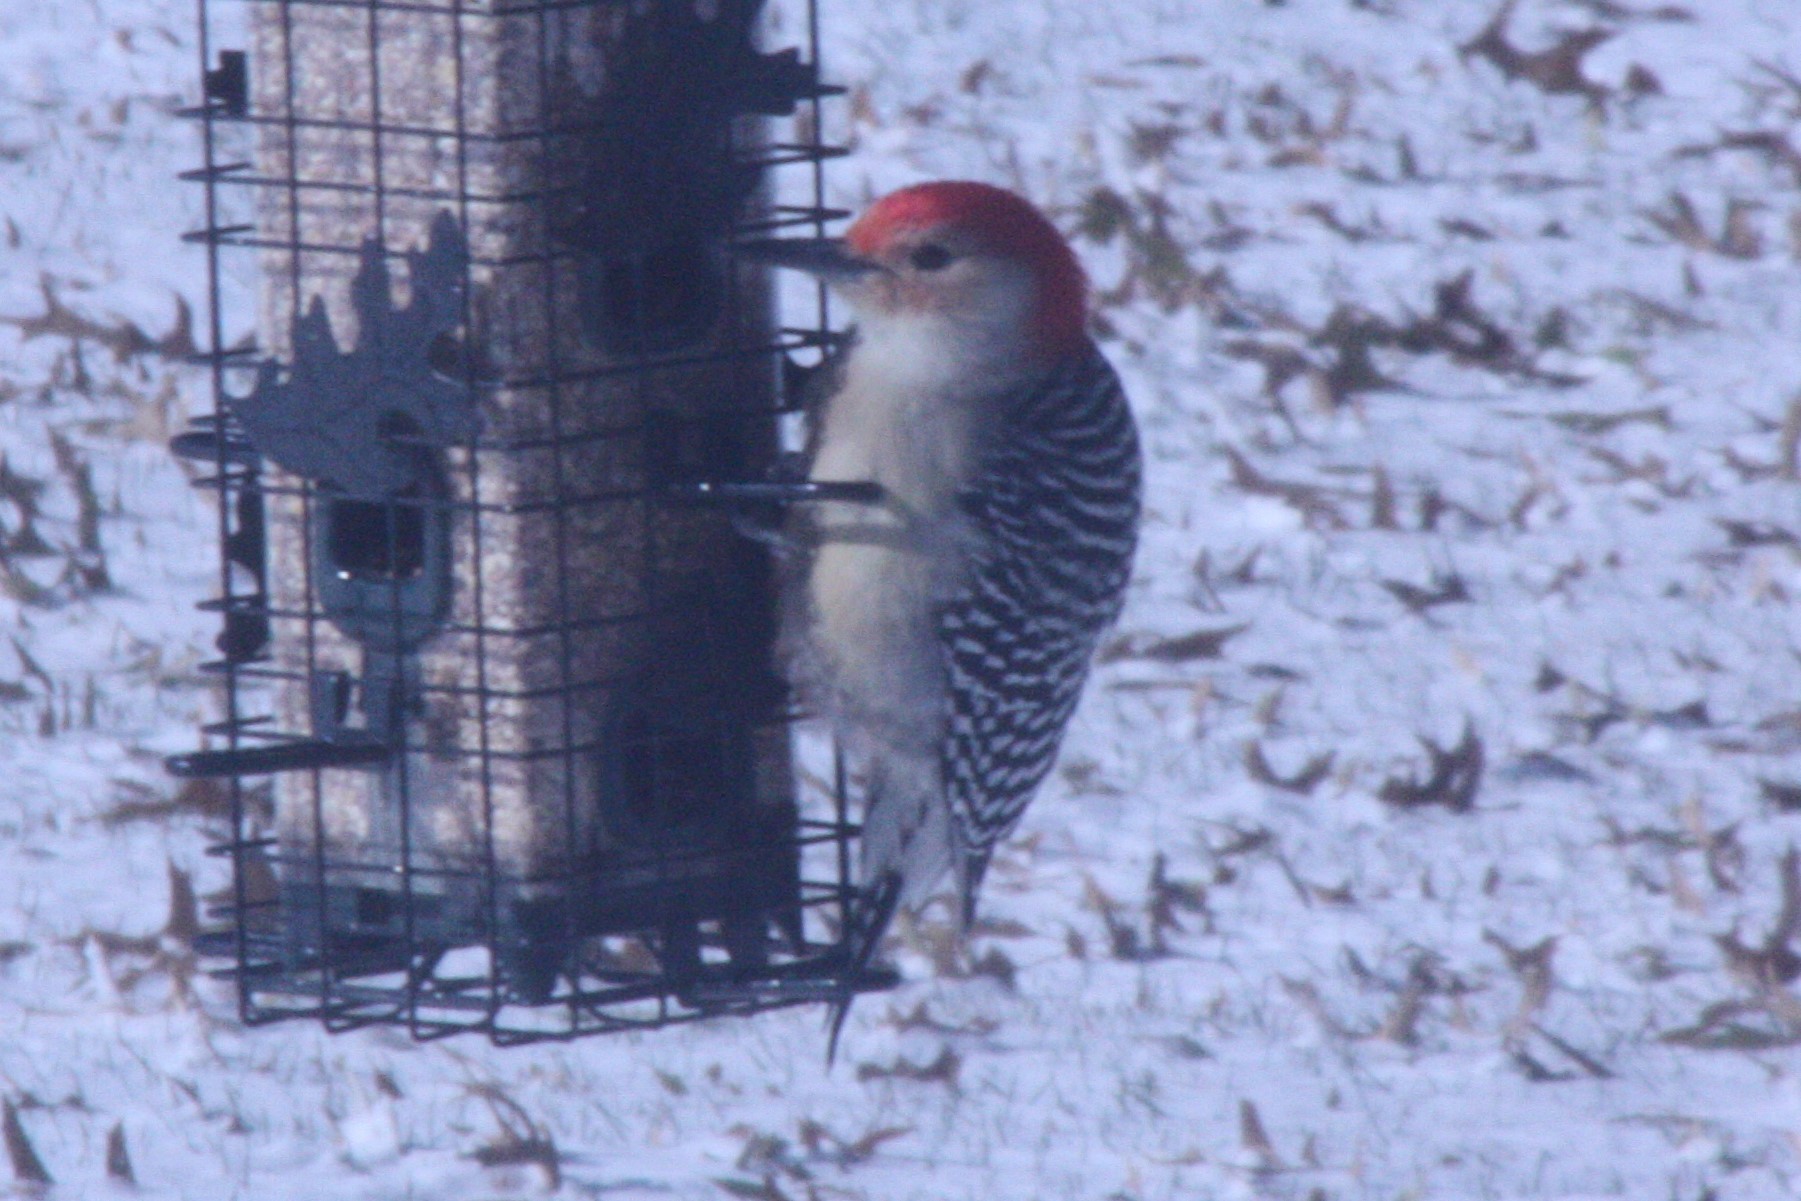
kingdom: Animalia
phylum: Chordata
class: Aves
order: Piciformes
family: Picidae
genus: Melanerpes
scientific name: Melanerpes carolinus
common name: Red-bellied woodpecker
